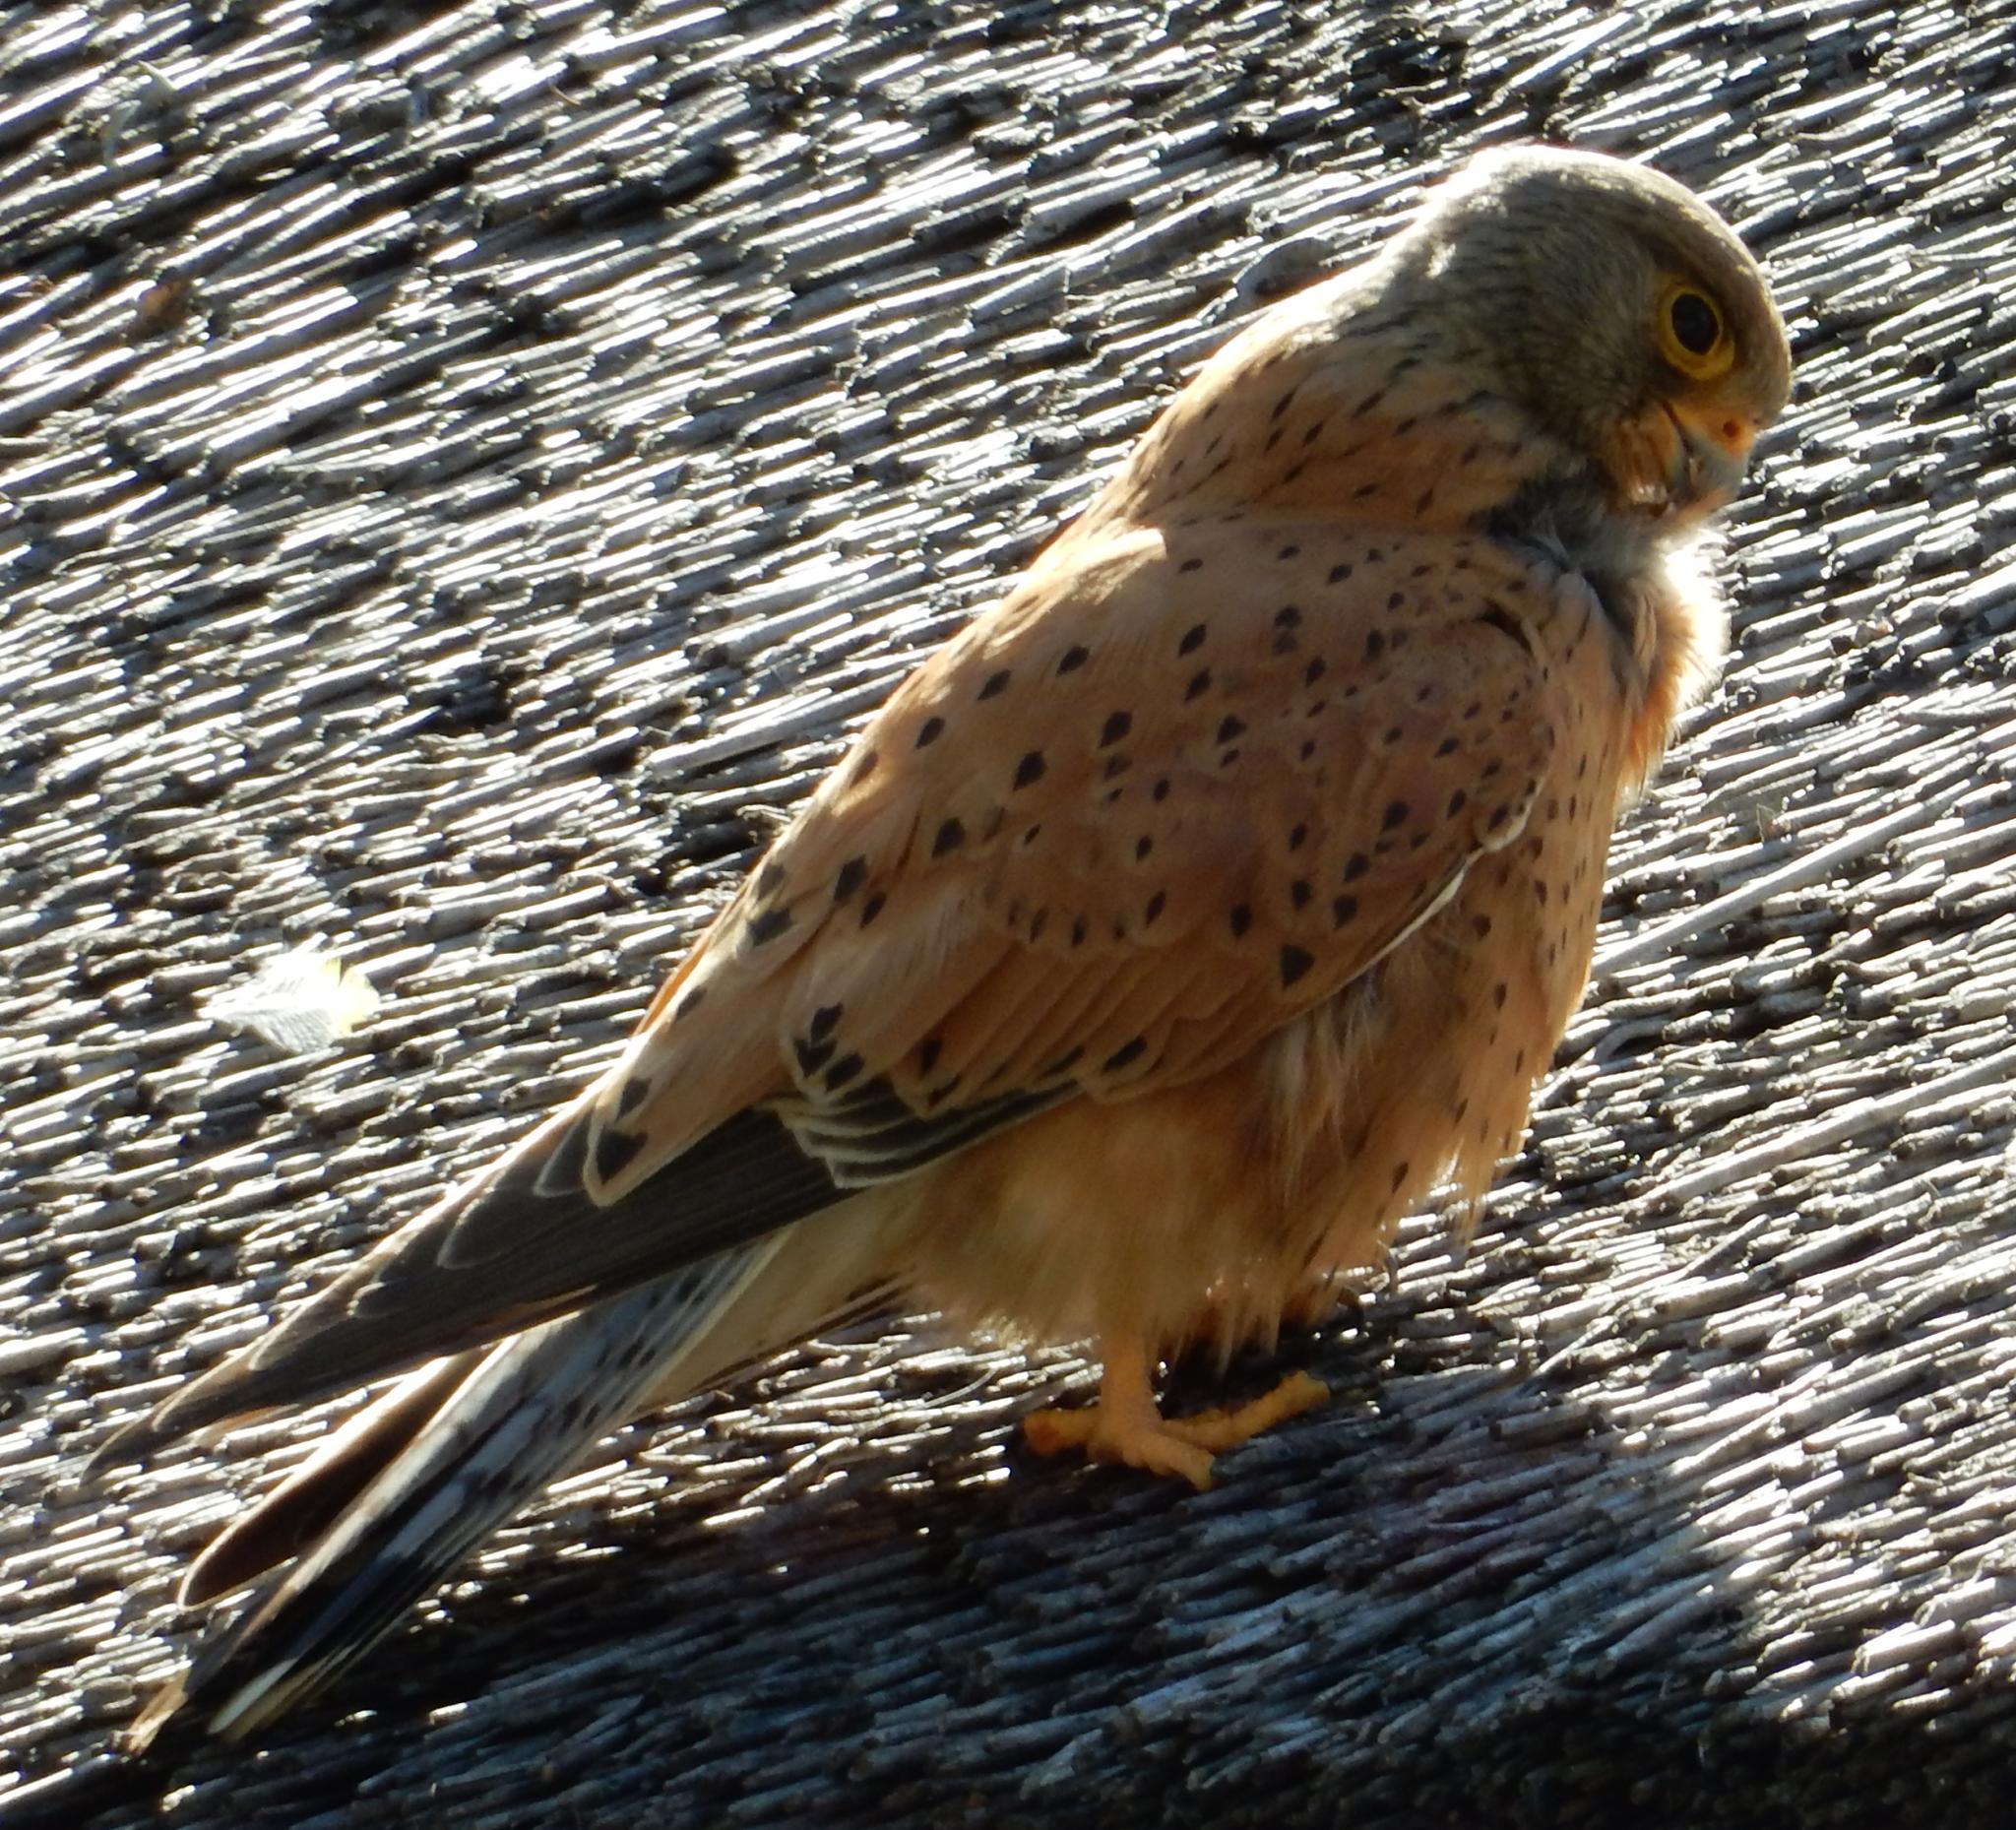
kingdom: Animalia
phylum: Chordata
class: Aves
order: Falconiformes
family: Falconidae
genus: Falco
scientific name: Falco rupicolus
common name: Rock kestrel
